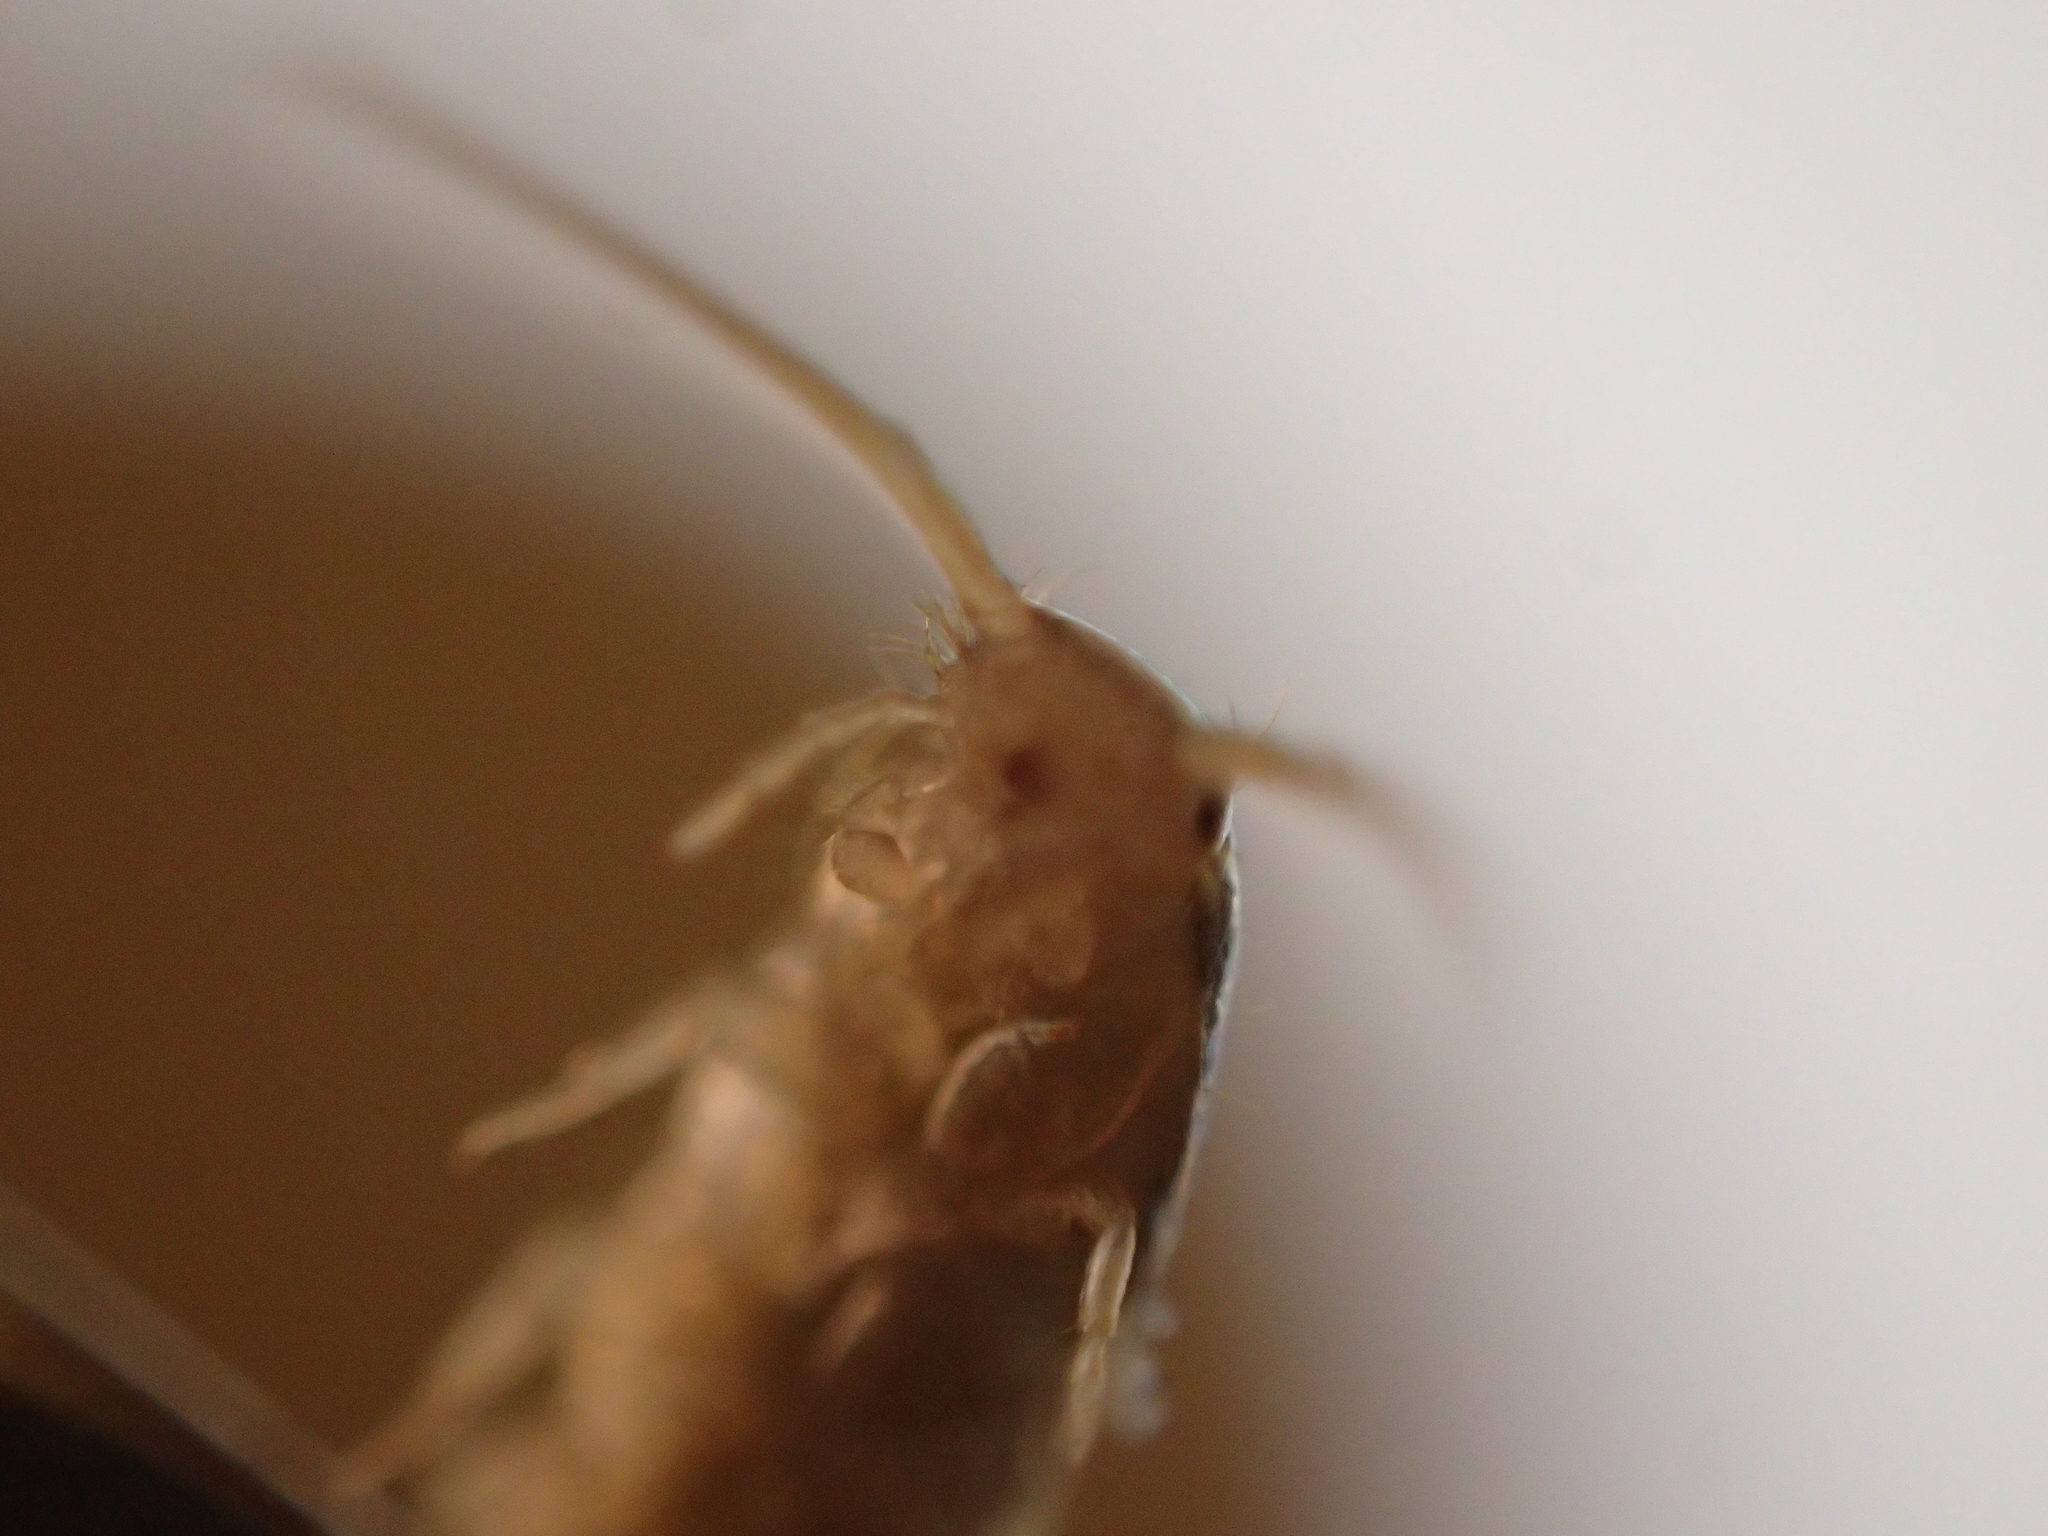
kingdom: Animalia
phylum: Arthropoda
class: Insecta
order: Zygentoma
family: Lepismatidae
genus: Lepisma
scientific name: Lepisma saccharinum
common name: Silverfish
